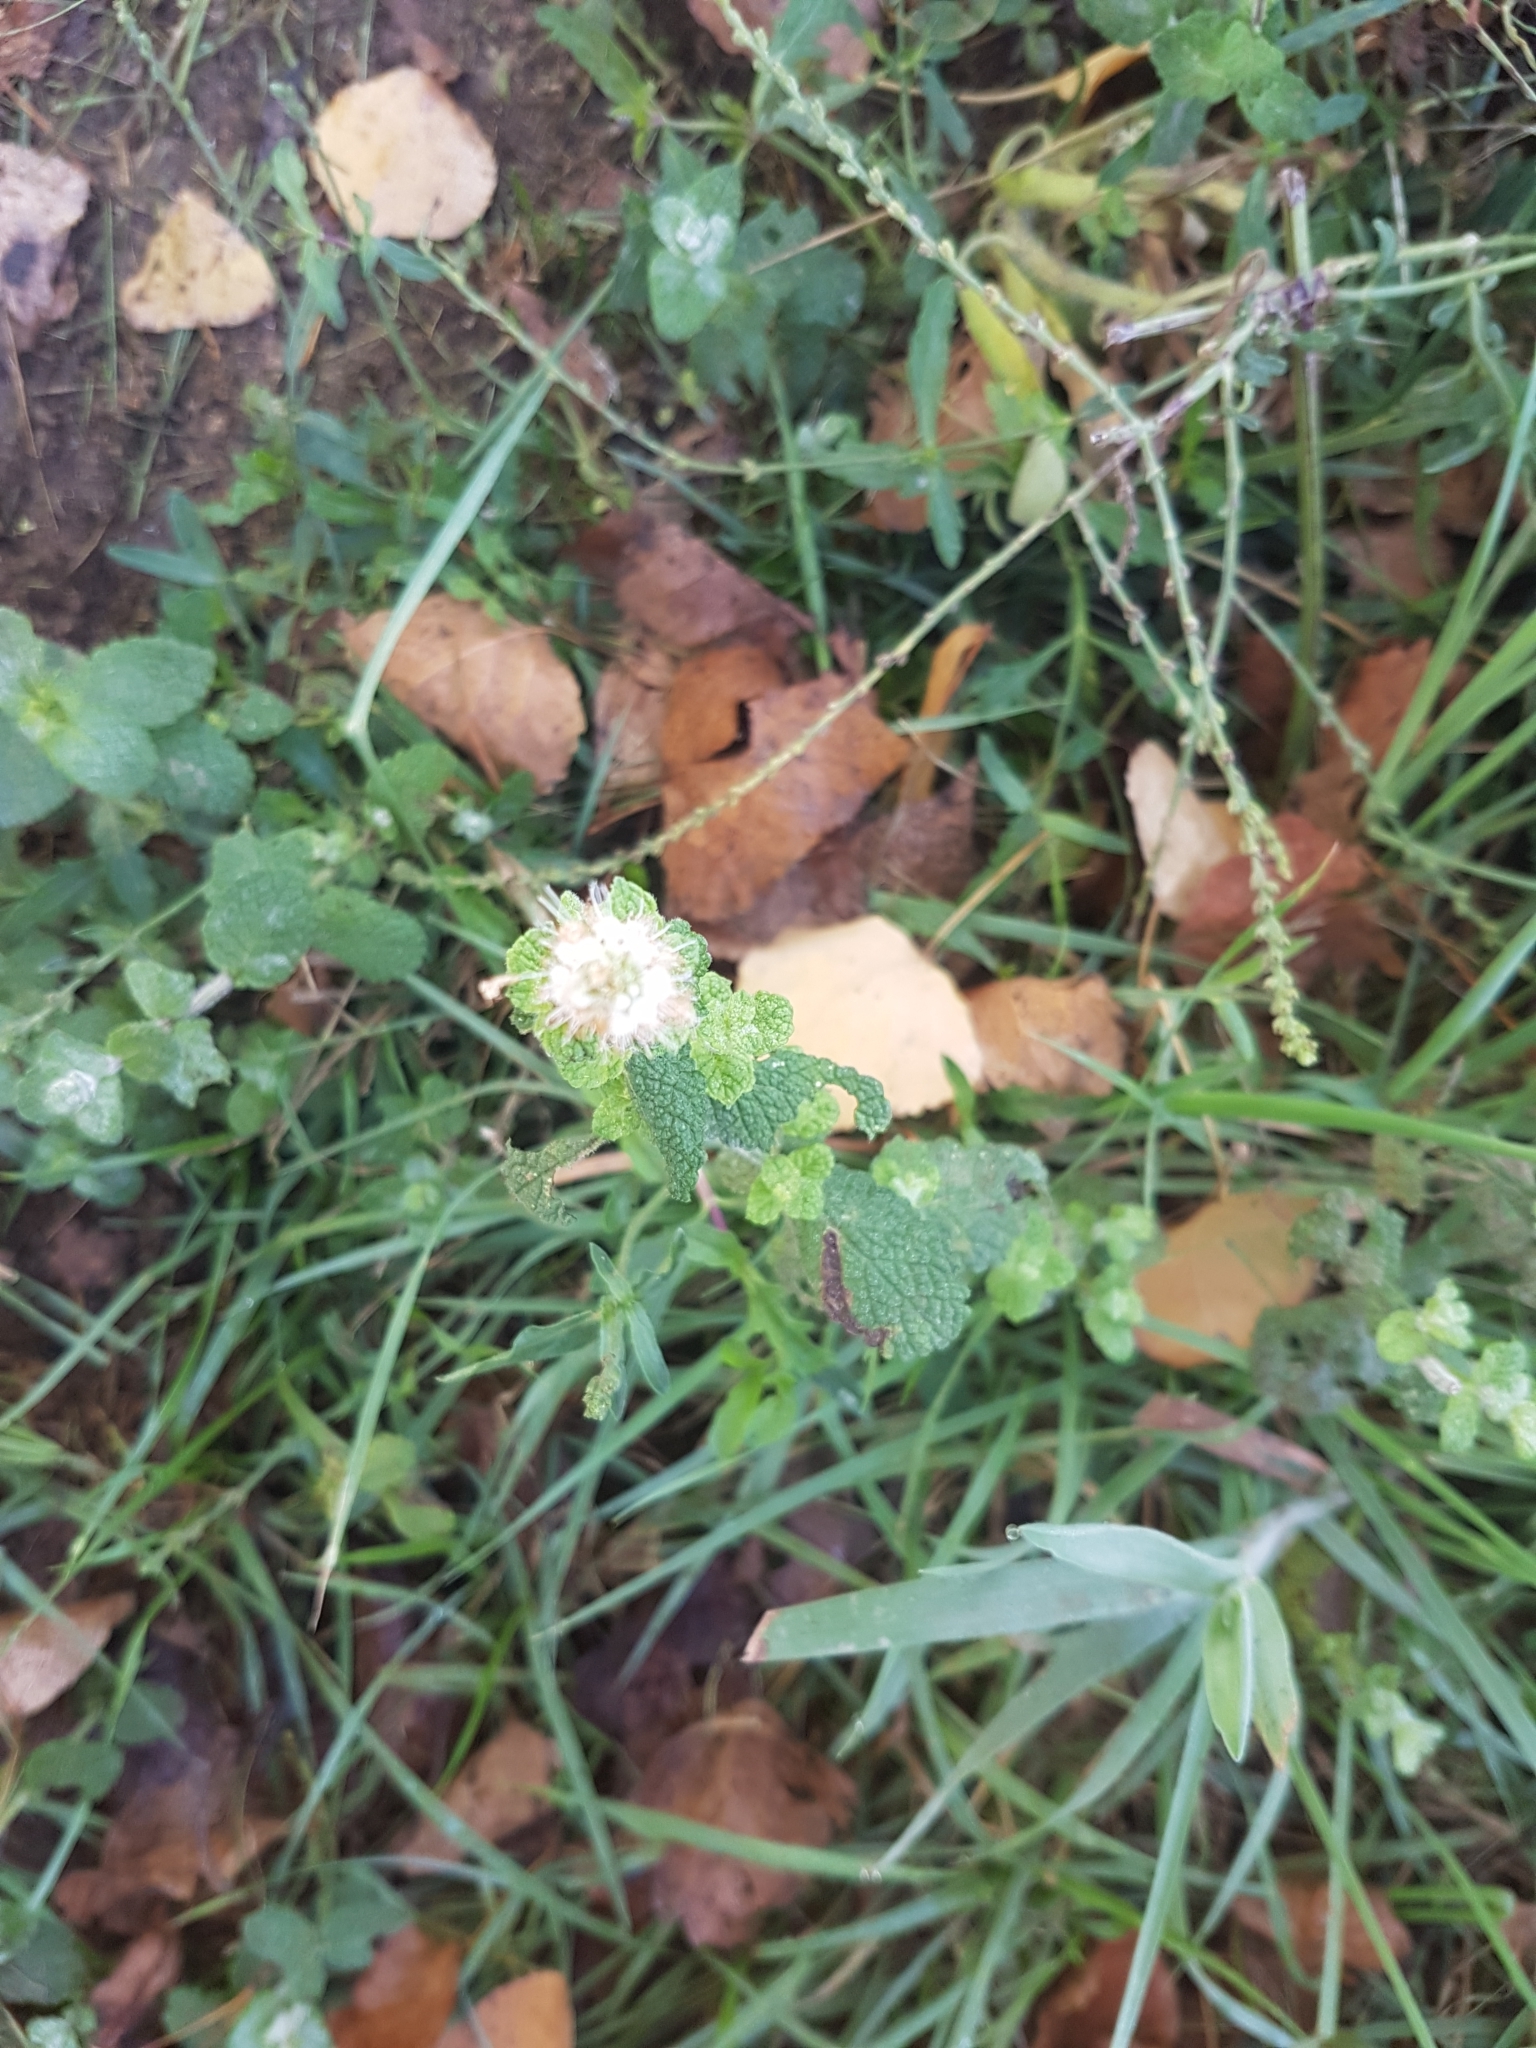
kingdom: Plantae
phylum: Tracheophyta
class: Magnoliopsida
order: Lamiales
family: Lamiaceae
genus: Mentha
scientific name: Mentha suaveolens
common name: Apple mint
